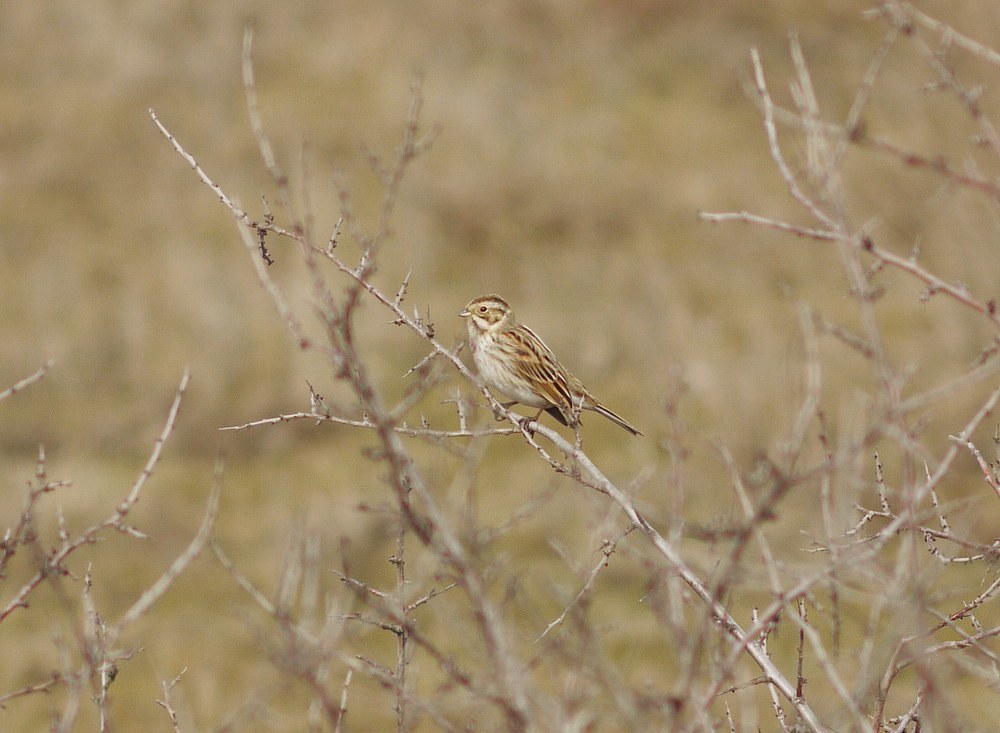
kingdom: Animalia
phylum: Chordata
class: Aves
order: Passeriformes
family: Emberizidae
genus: Emberiza
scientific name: Emberiza schoeniclus
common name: Reed bunting
